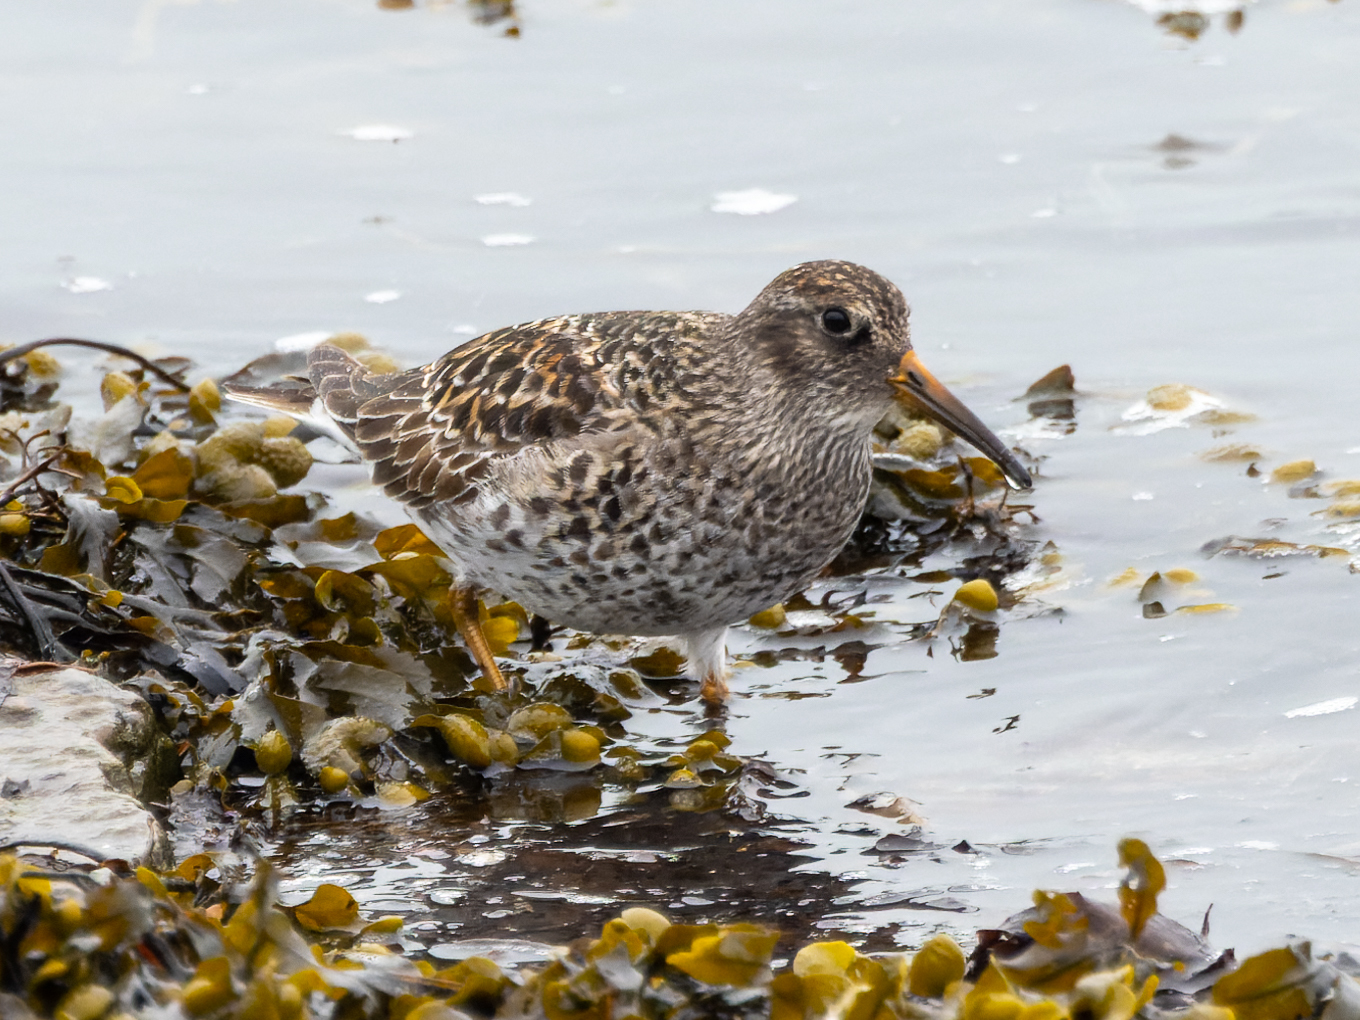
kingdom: Animalia
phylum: Chordata
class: Aves
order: Charadriiformes
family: Scolopacidae
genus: Calidris
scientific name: Calidris maritima
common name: Purple sandpiper
